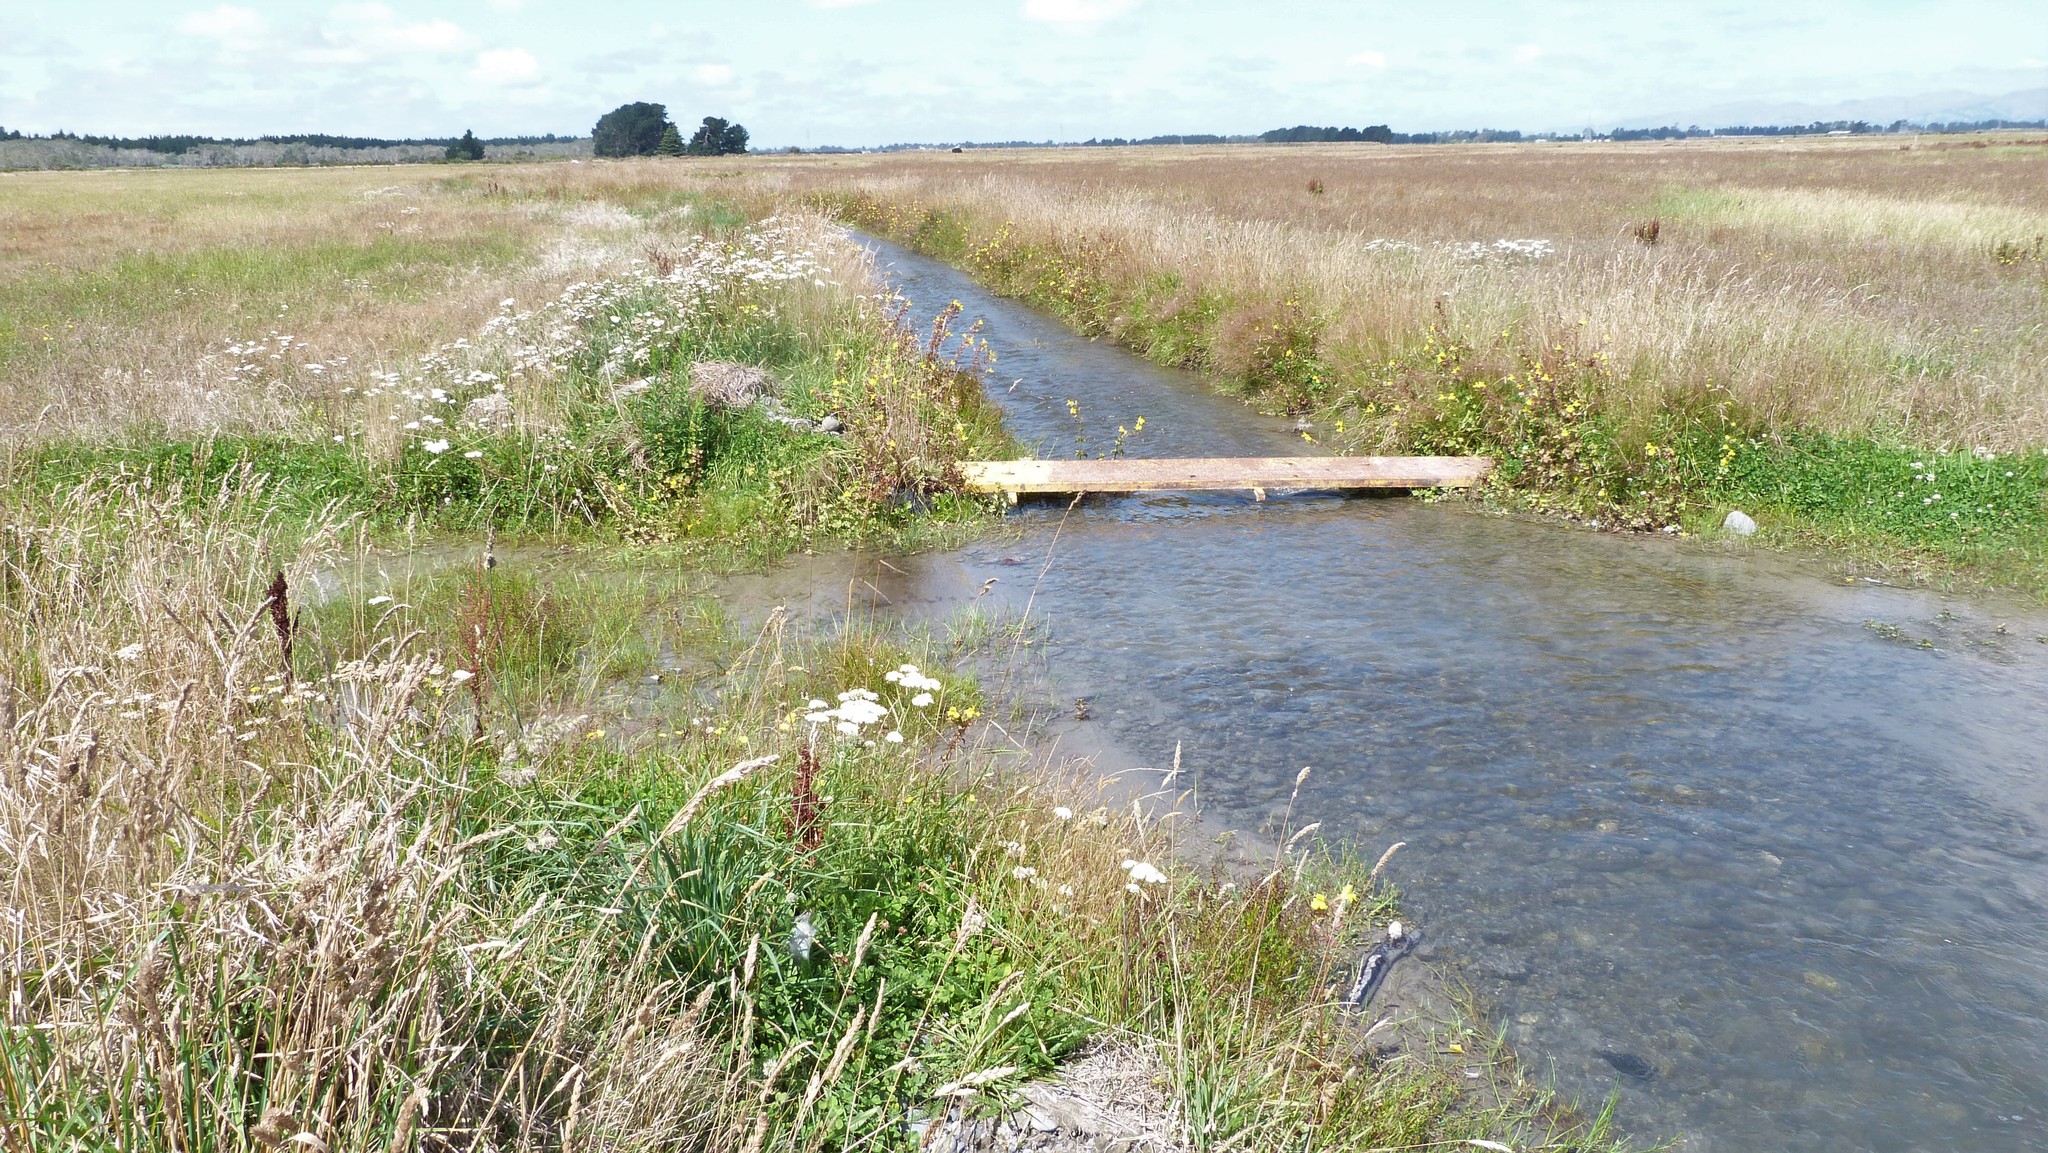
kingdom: Plantae
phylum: Tracheophyta
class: Magnoliopsida
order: Asterales
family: Asteraceae
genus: Achillea
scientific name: Achillea millefolium
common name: Yarrow
